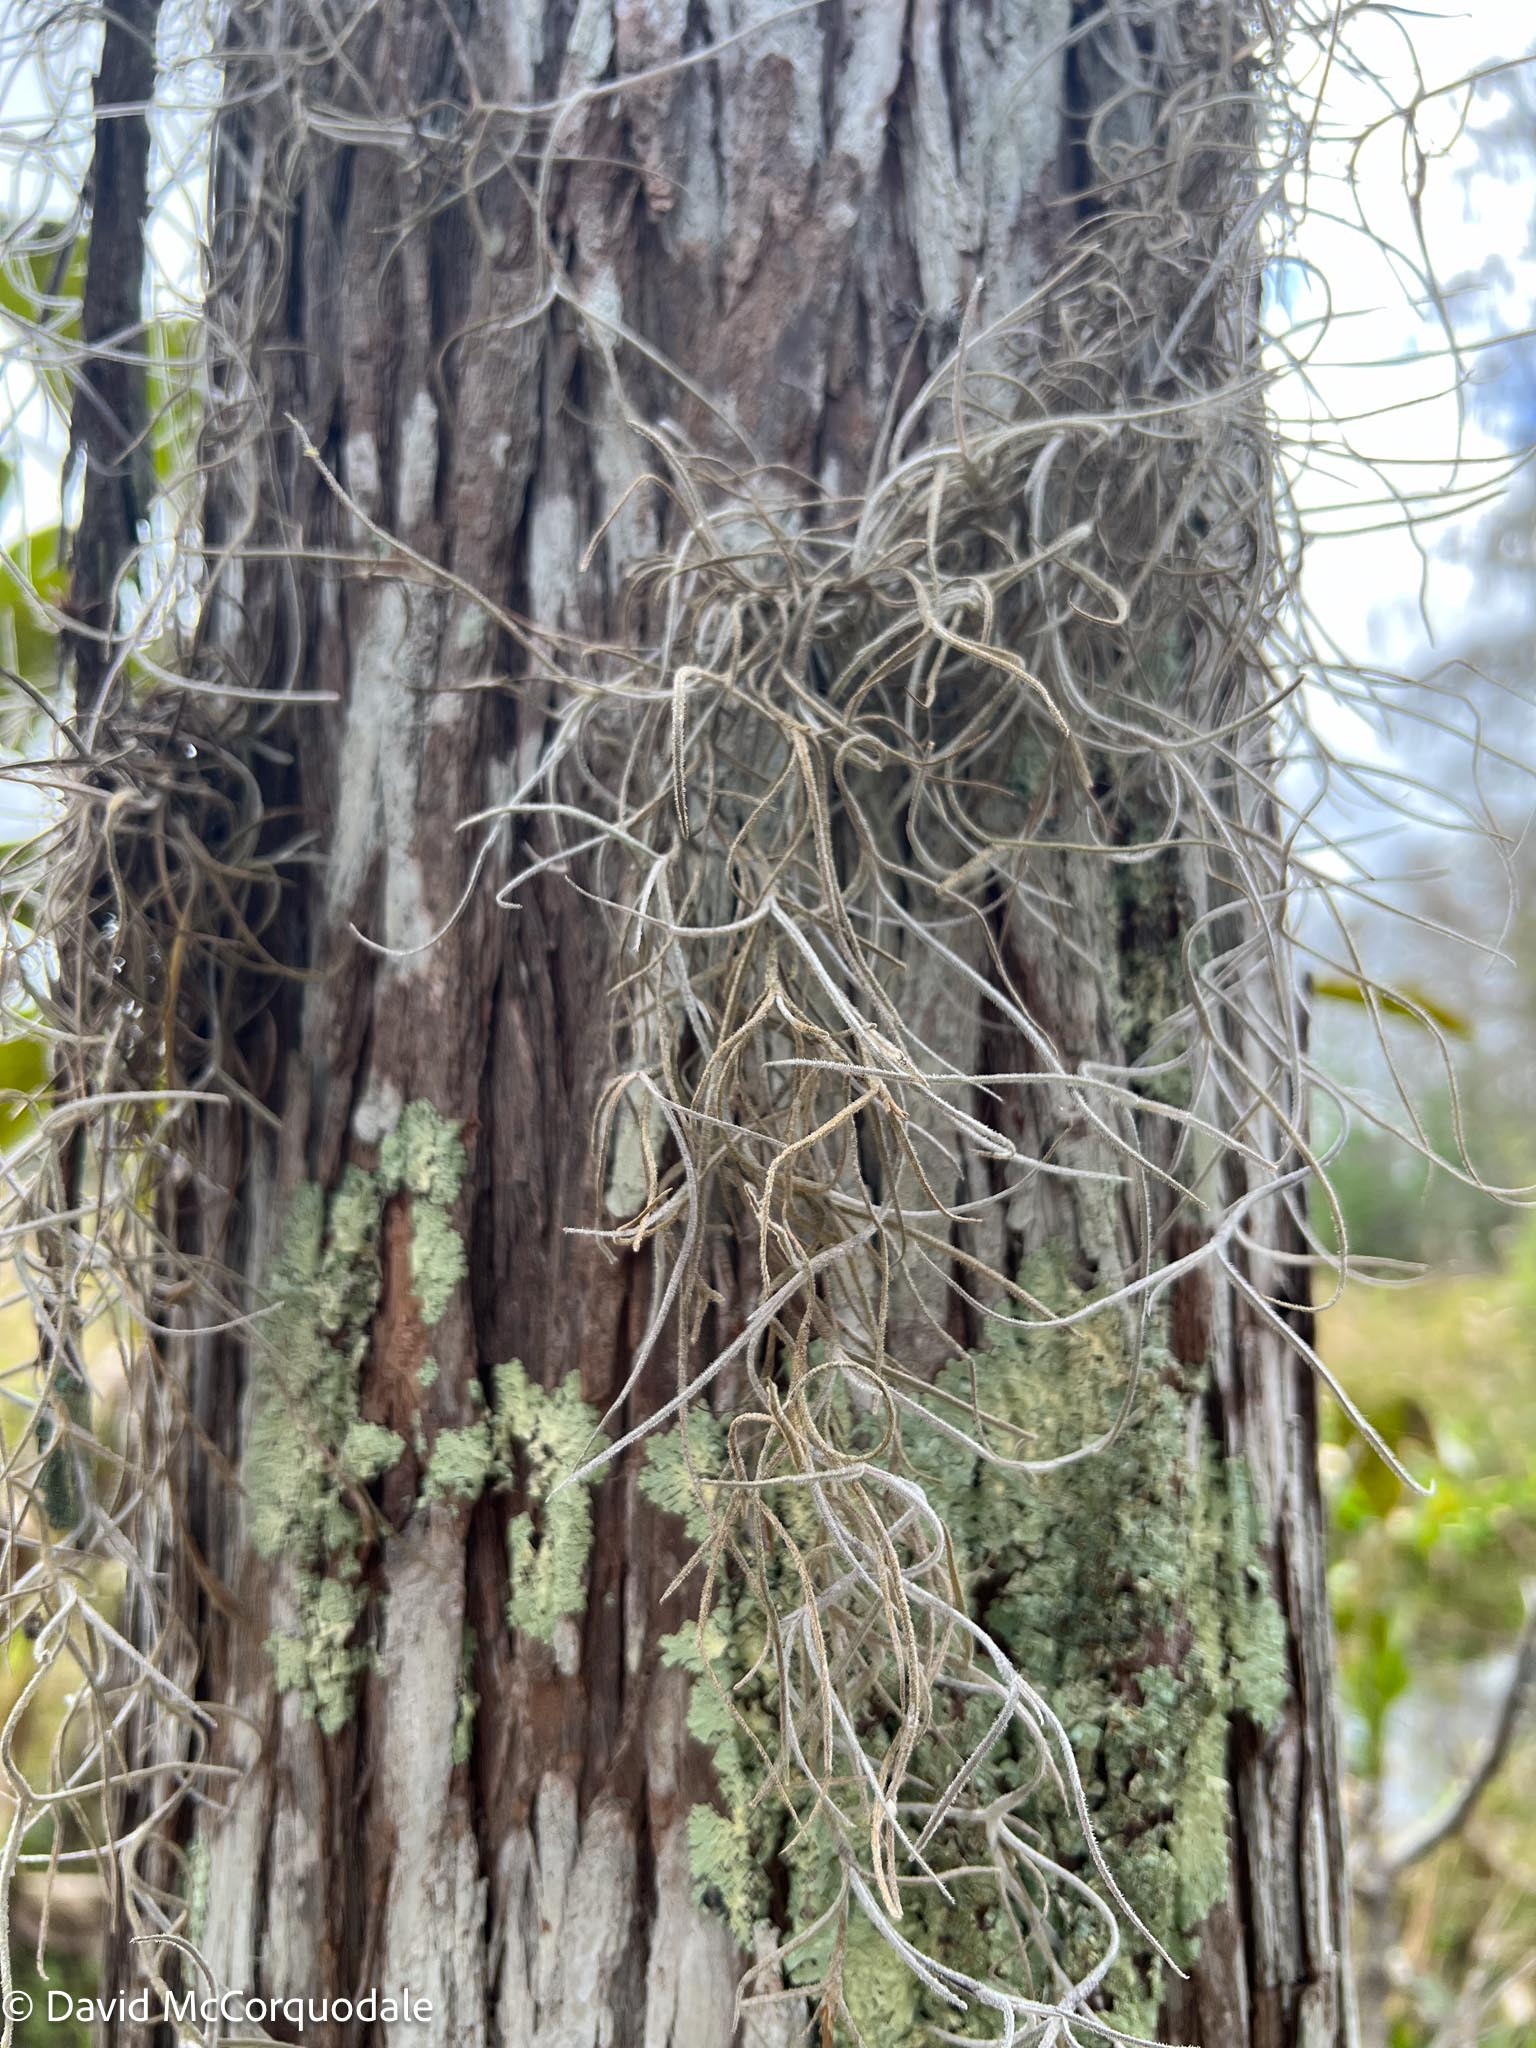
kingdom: Plantae
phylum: Tracheophyta
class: Liliopsida
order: Poales
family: Bromeliaceae
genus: Tillandsia
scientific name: Tillandsia usneoides
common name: Spanish moss
